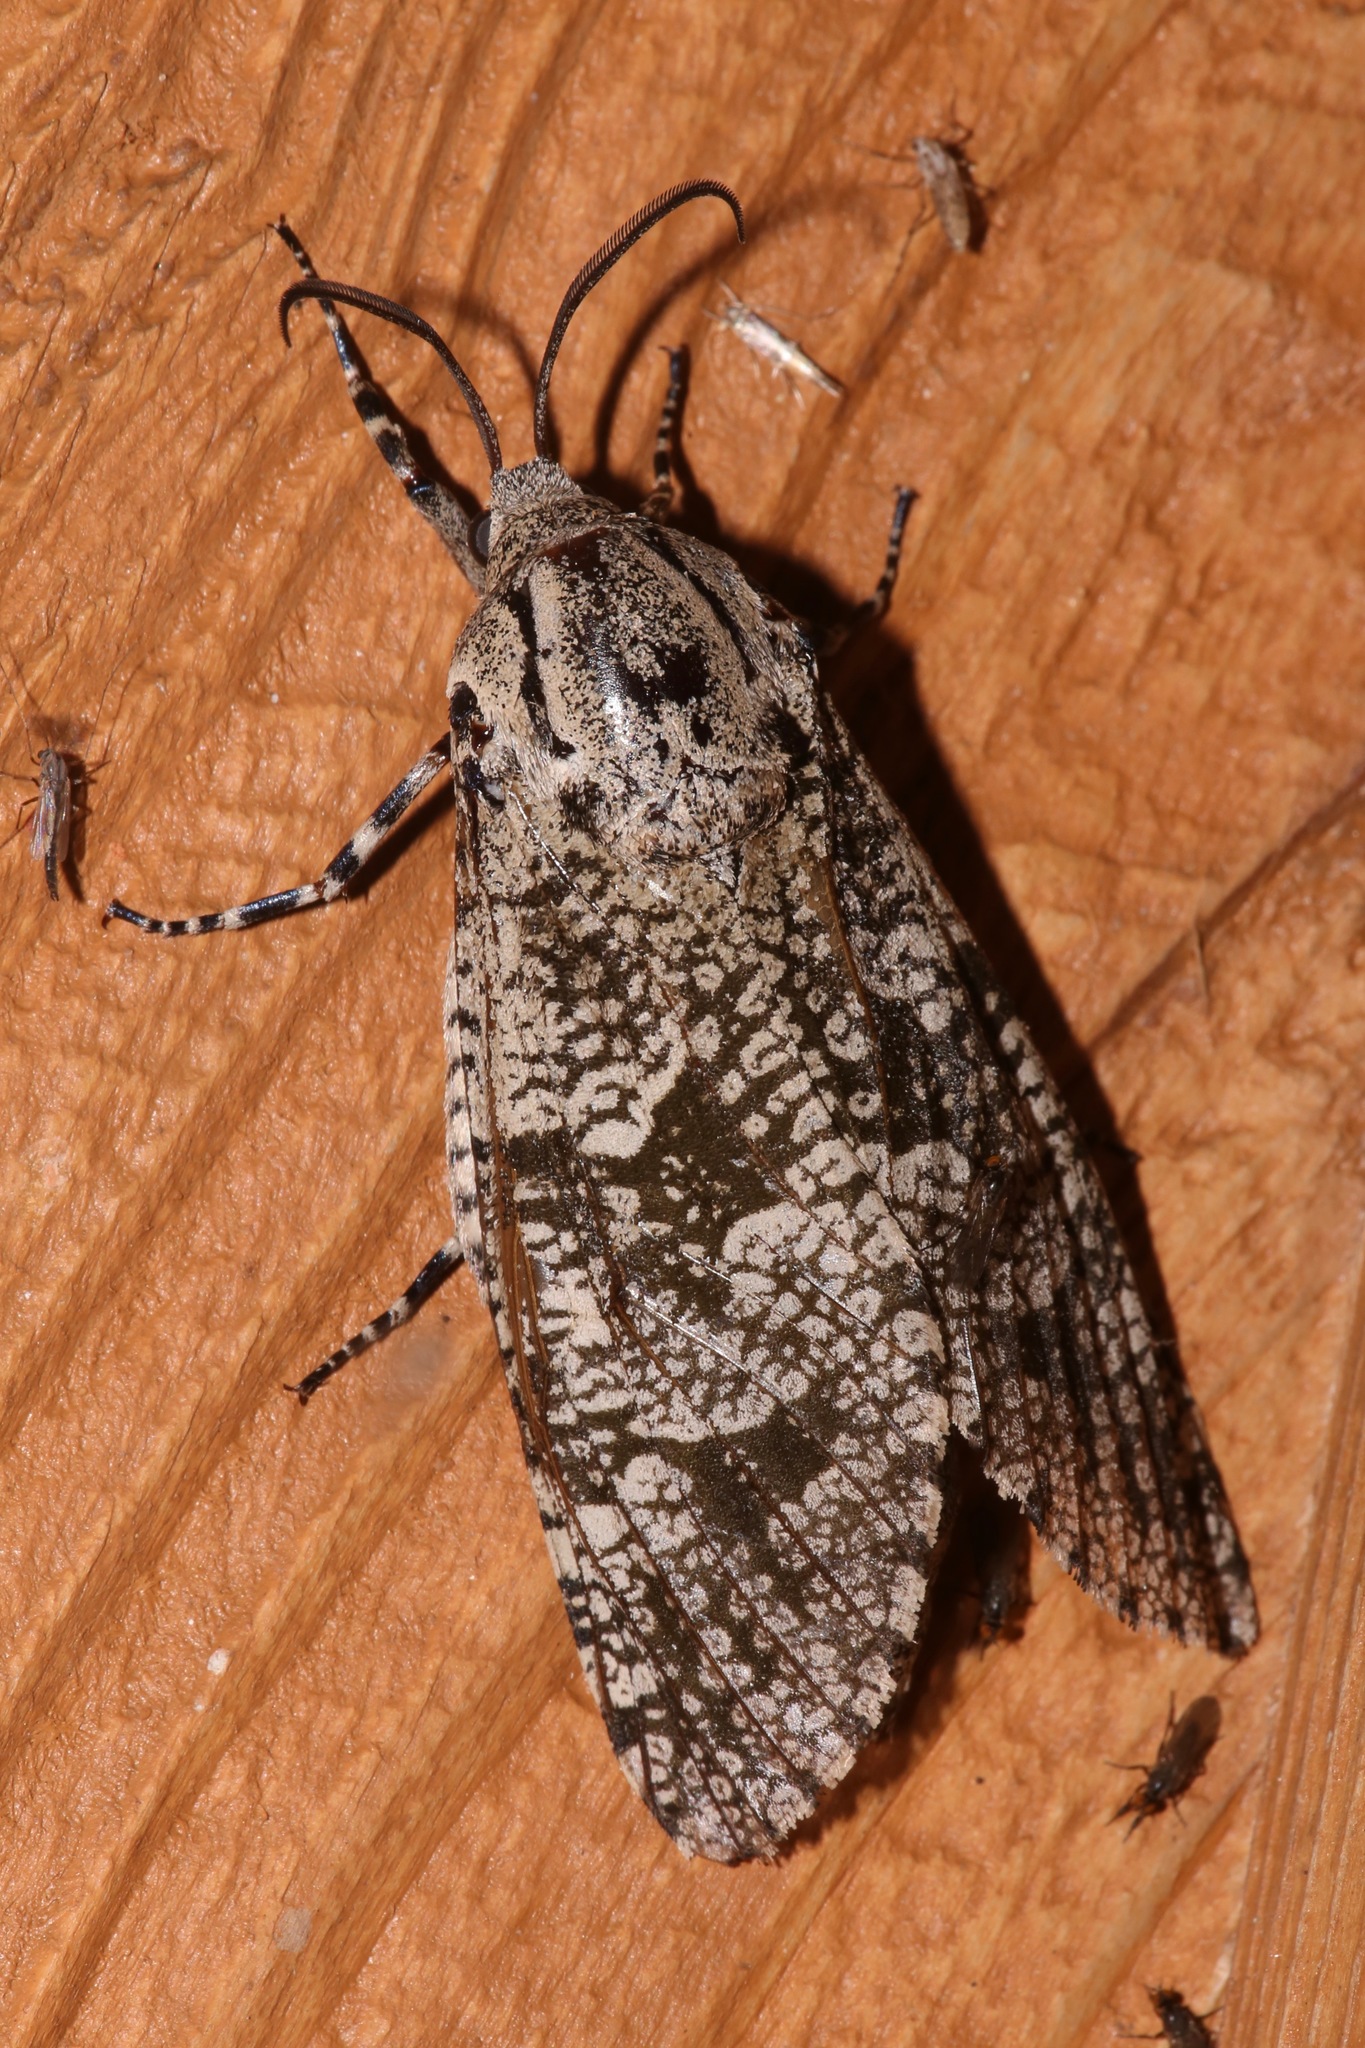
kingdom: Animalia
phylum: Arthropoda
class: Insecta
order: Lepidoptera
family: Cossidae
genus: Prionoxystus
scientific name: Prionoxystus robiniae
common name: Carpenterworm
